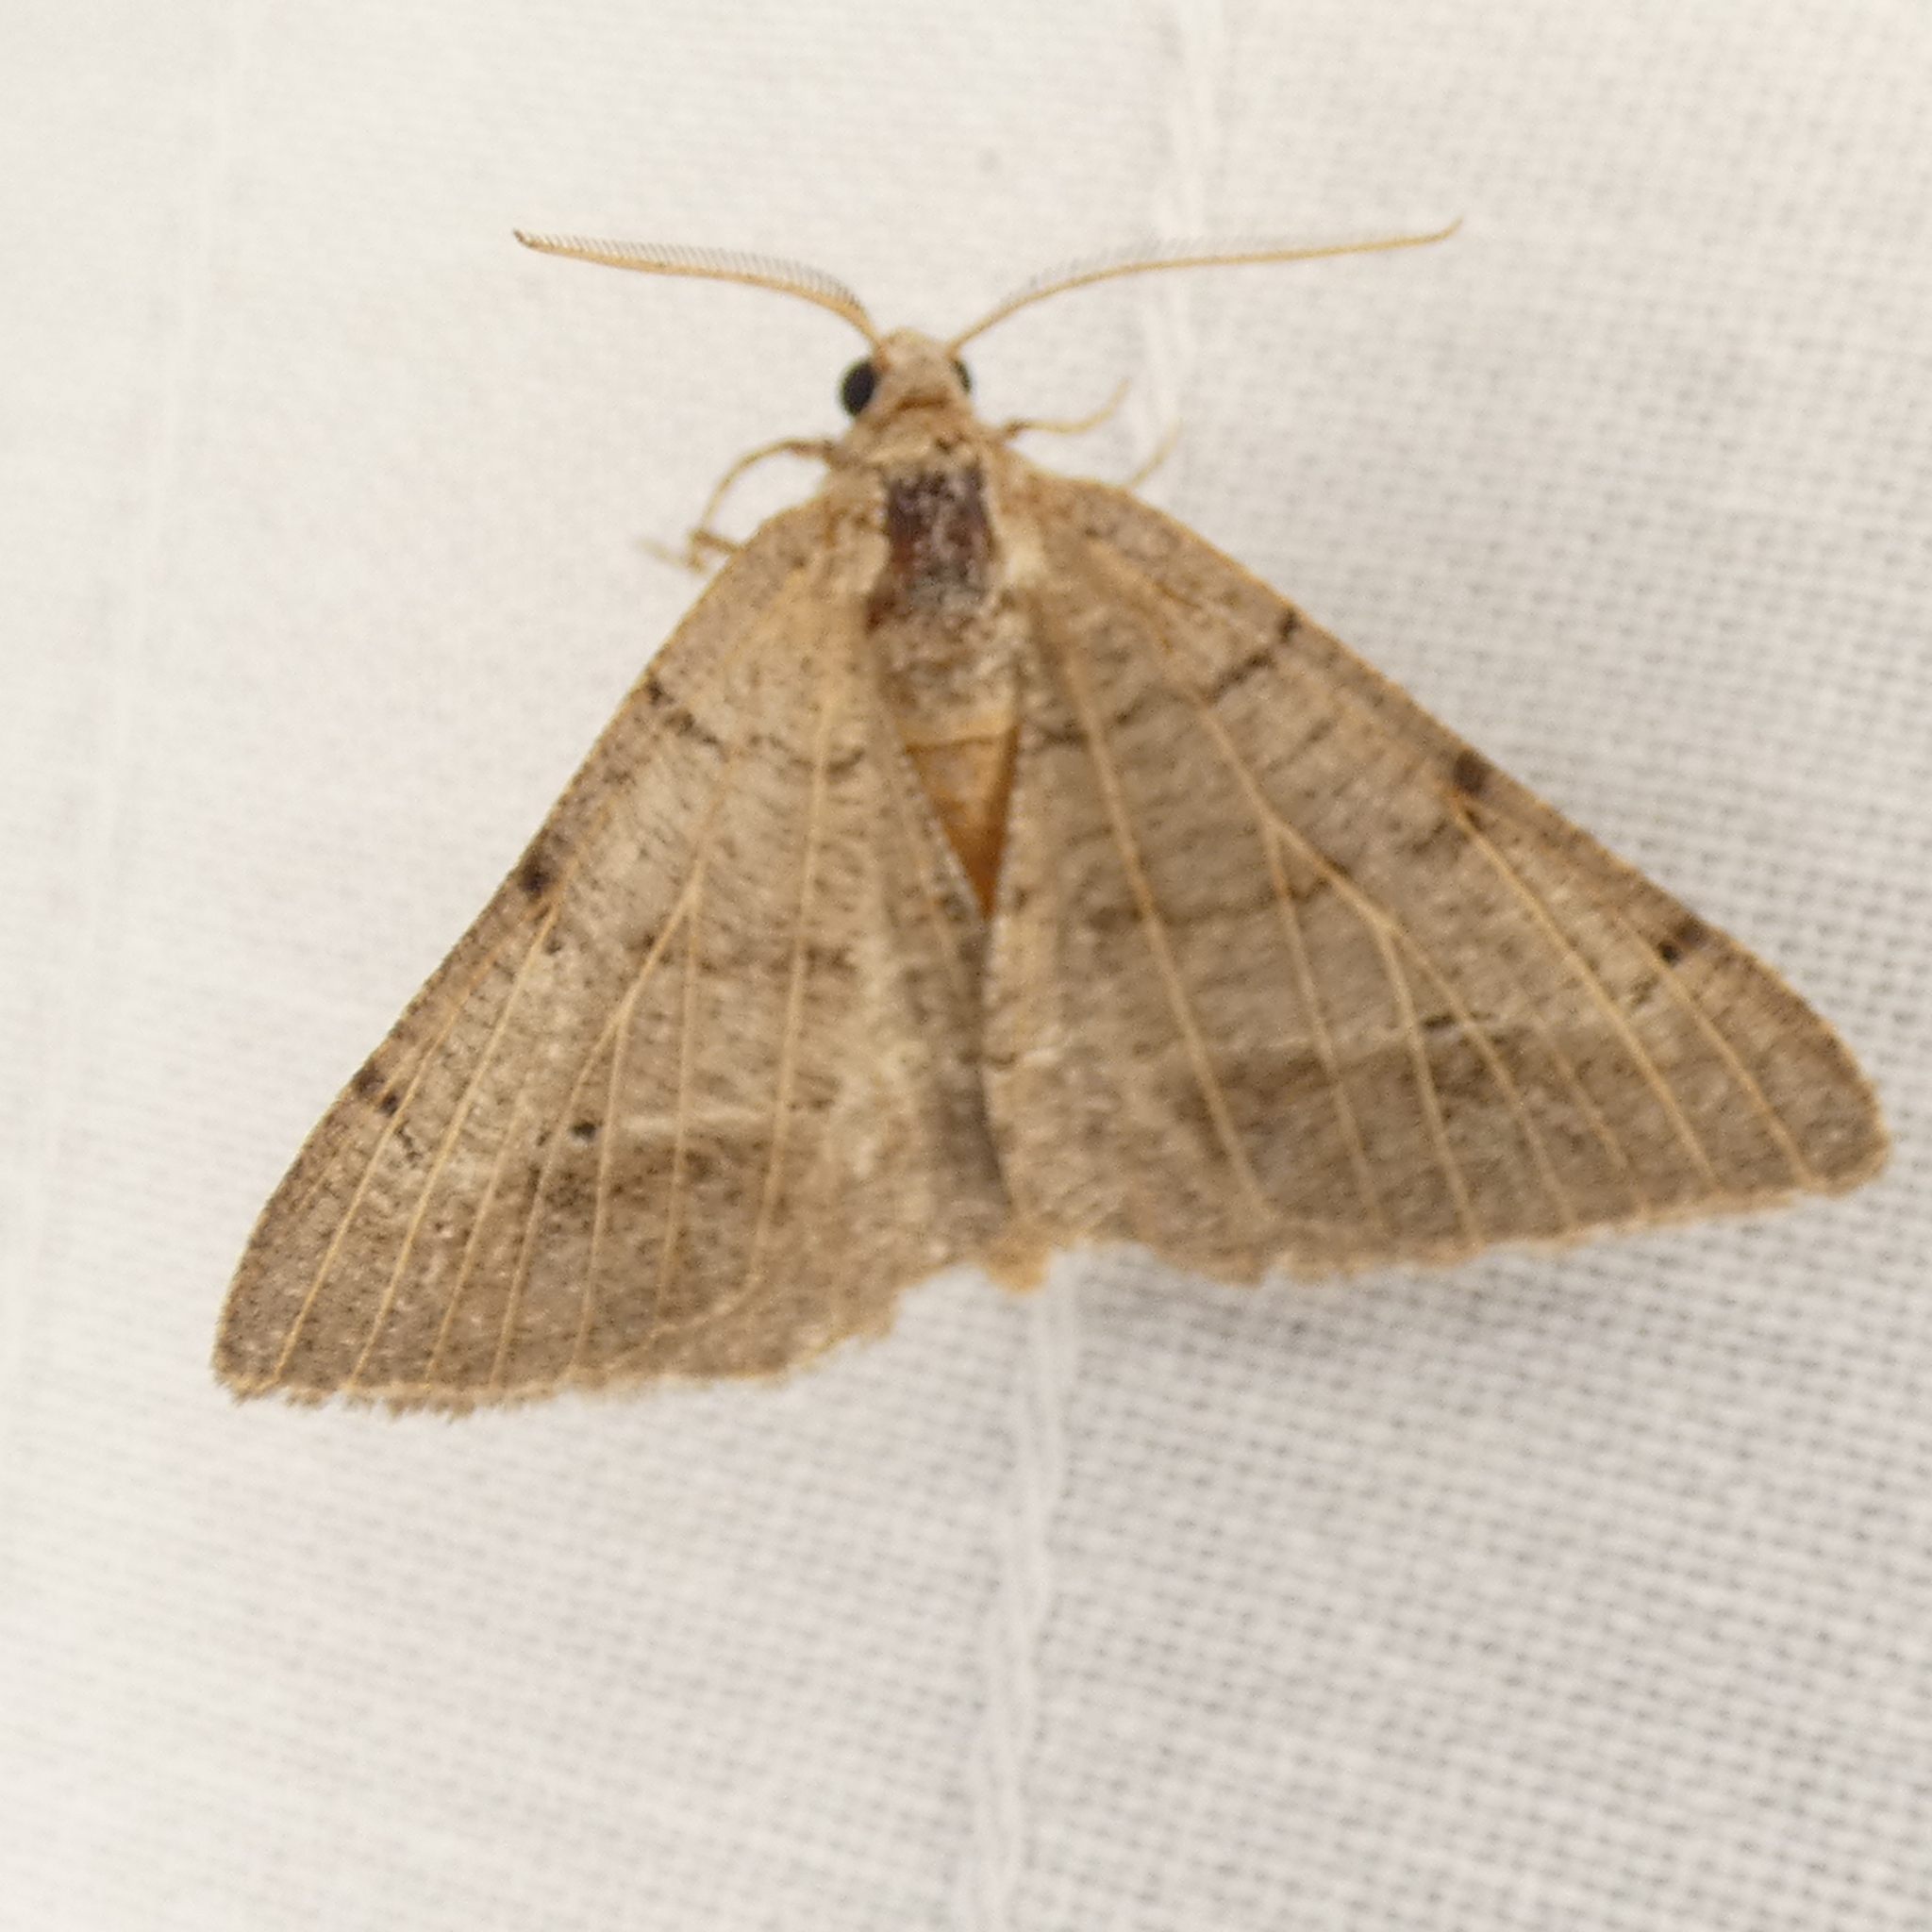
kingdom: Animalia
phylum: Arthropoda
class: Insecta
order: Lepidoptera
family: Geometridae
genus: Isturgia
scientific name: Isturgia dislocaria
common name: Pale-viened enconista
